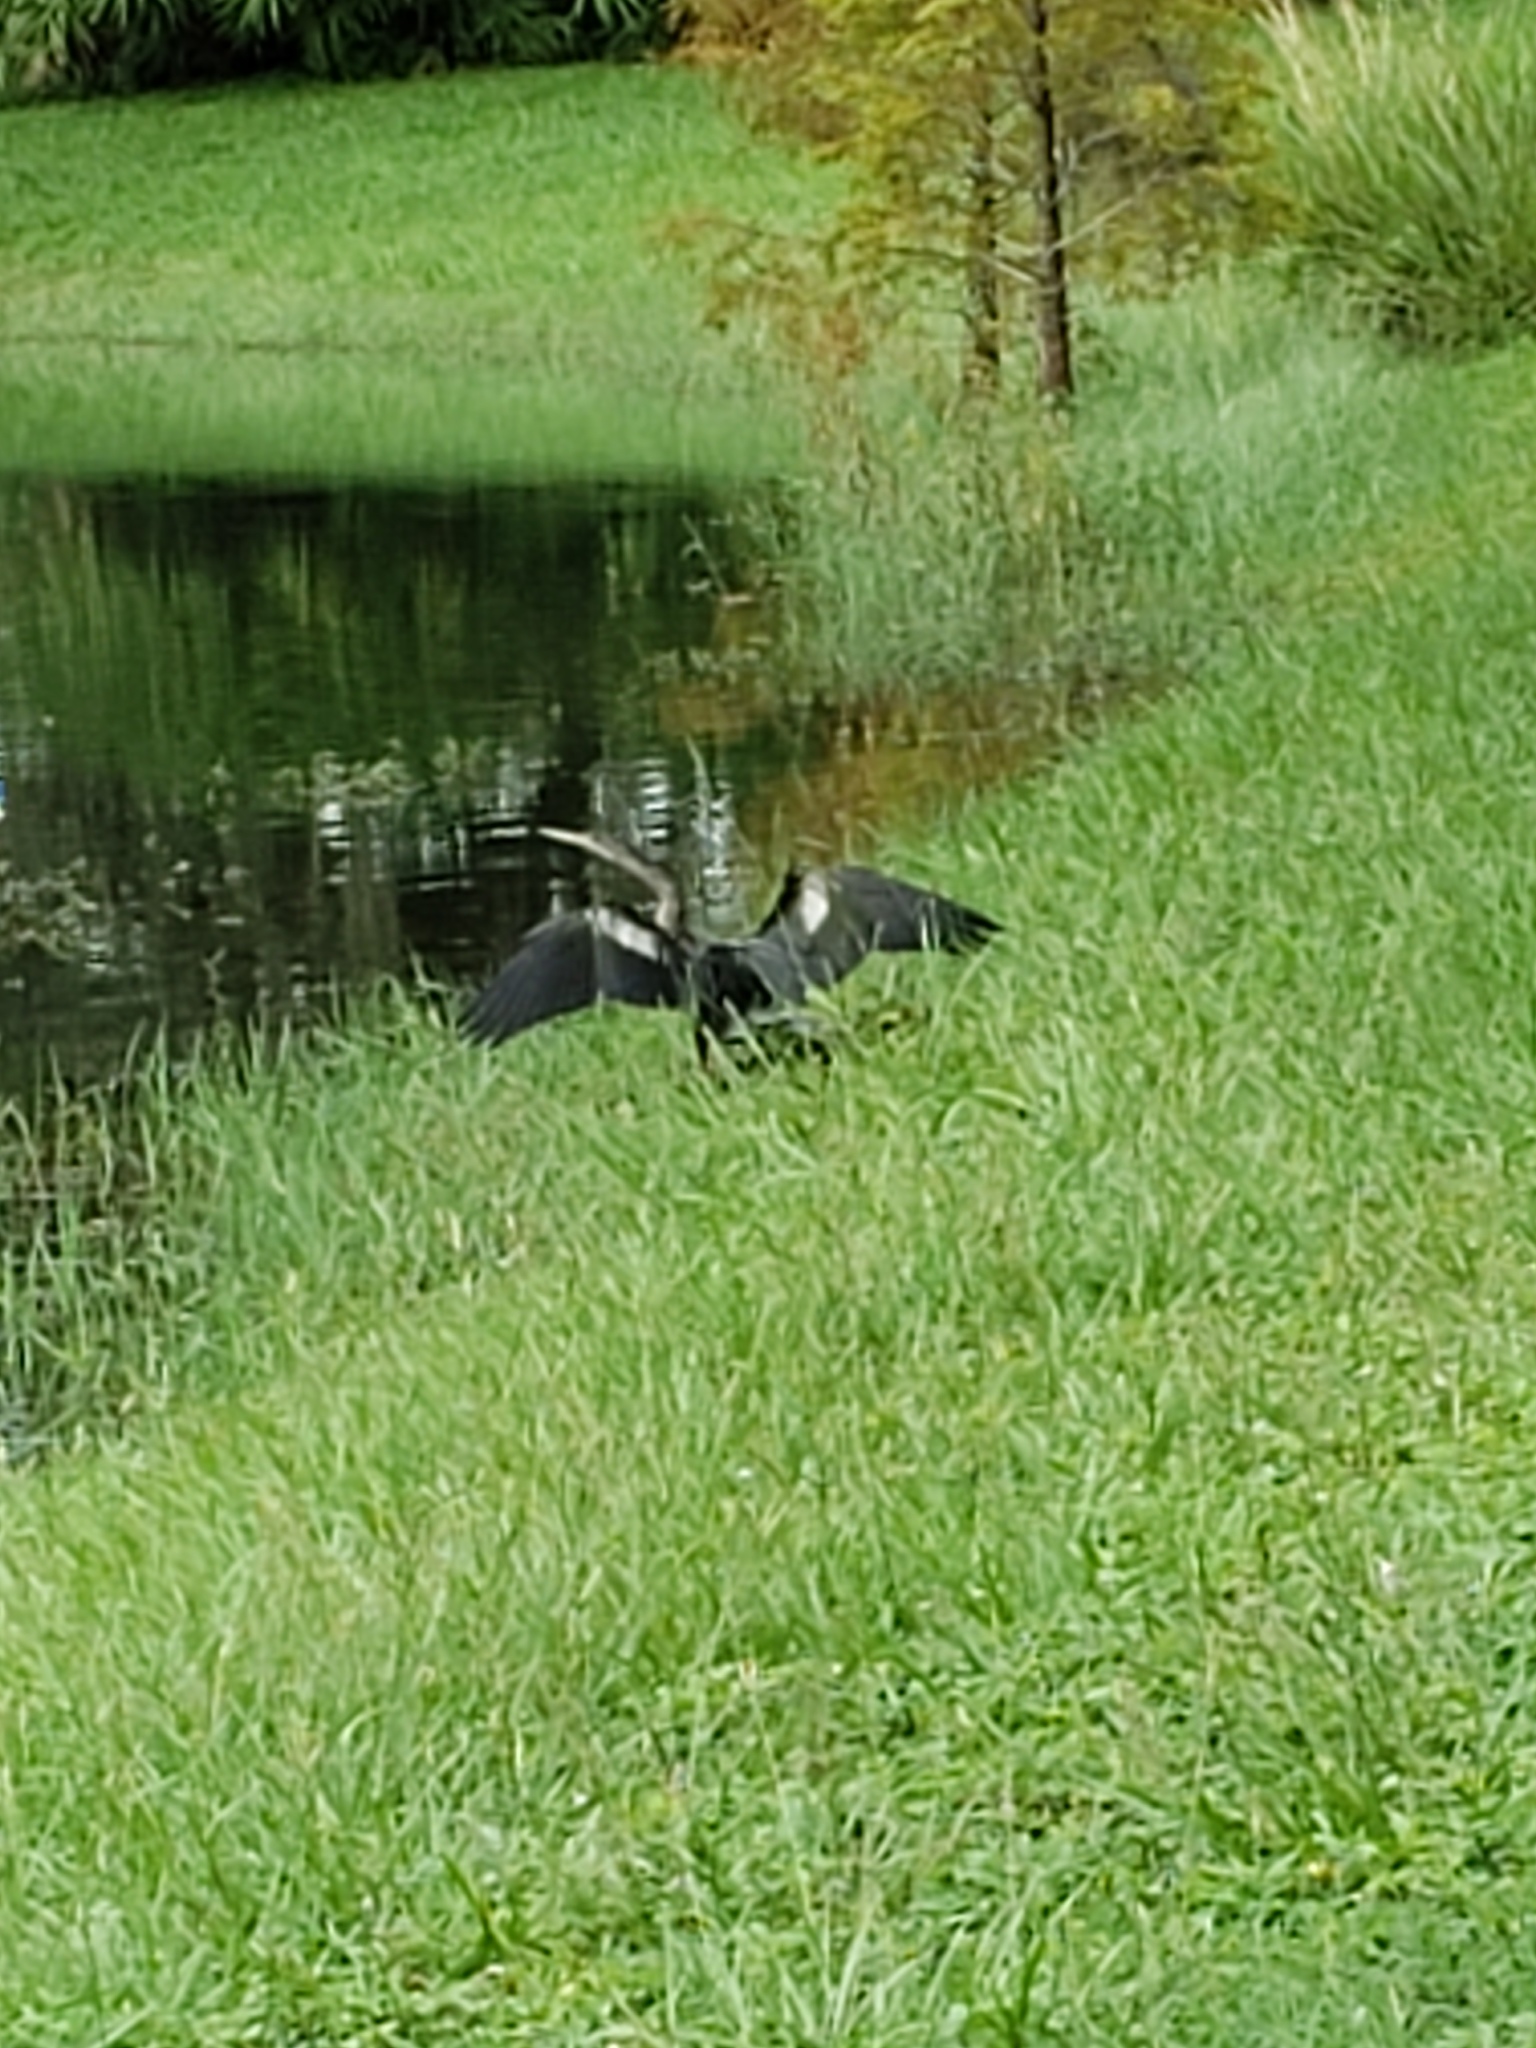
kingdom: Animalia
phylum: Chordata
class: Aves
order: Suliformes
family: Anhingidae
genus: Anhinga
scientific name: Anhinga anhinga
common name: Anhinga
